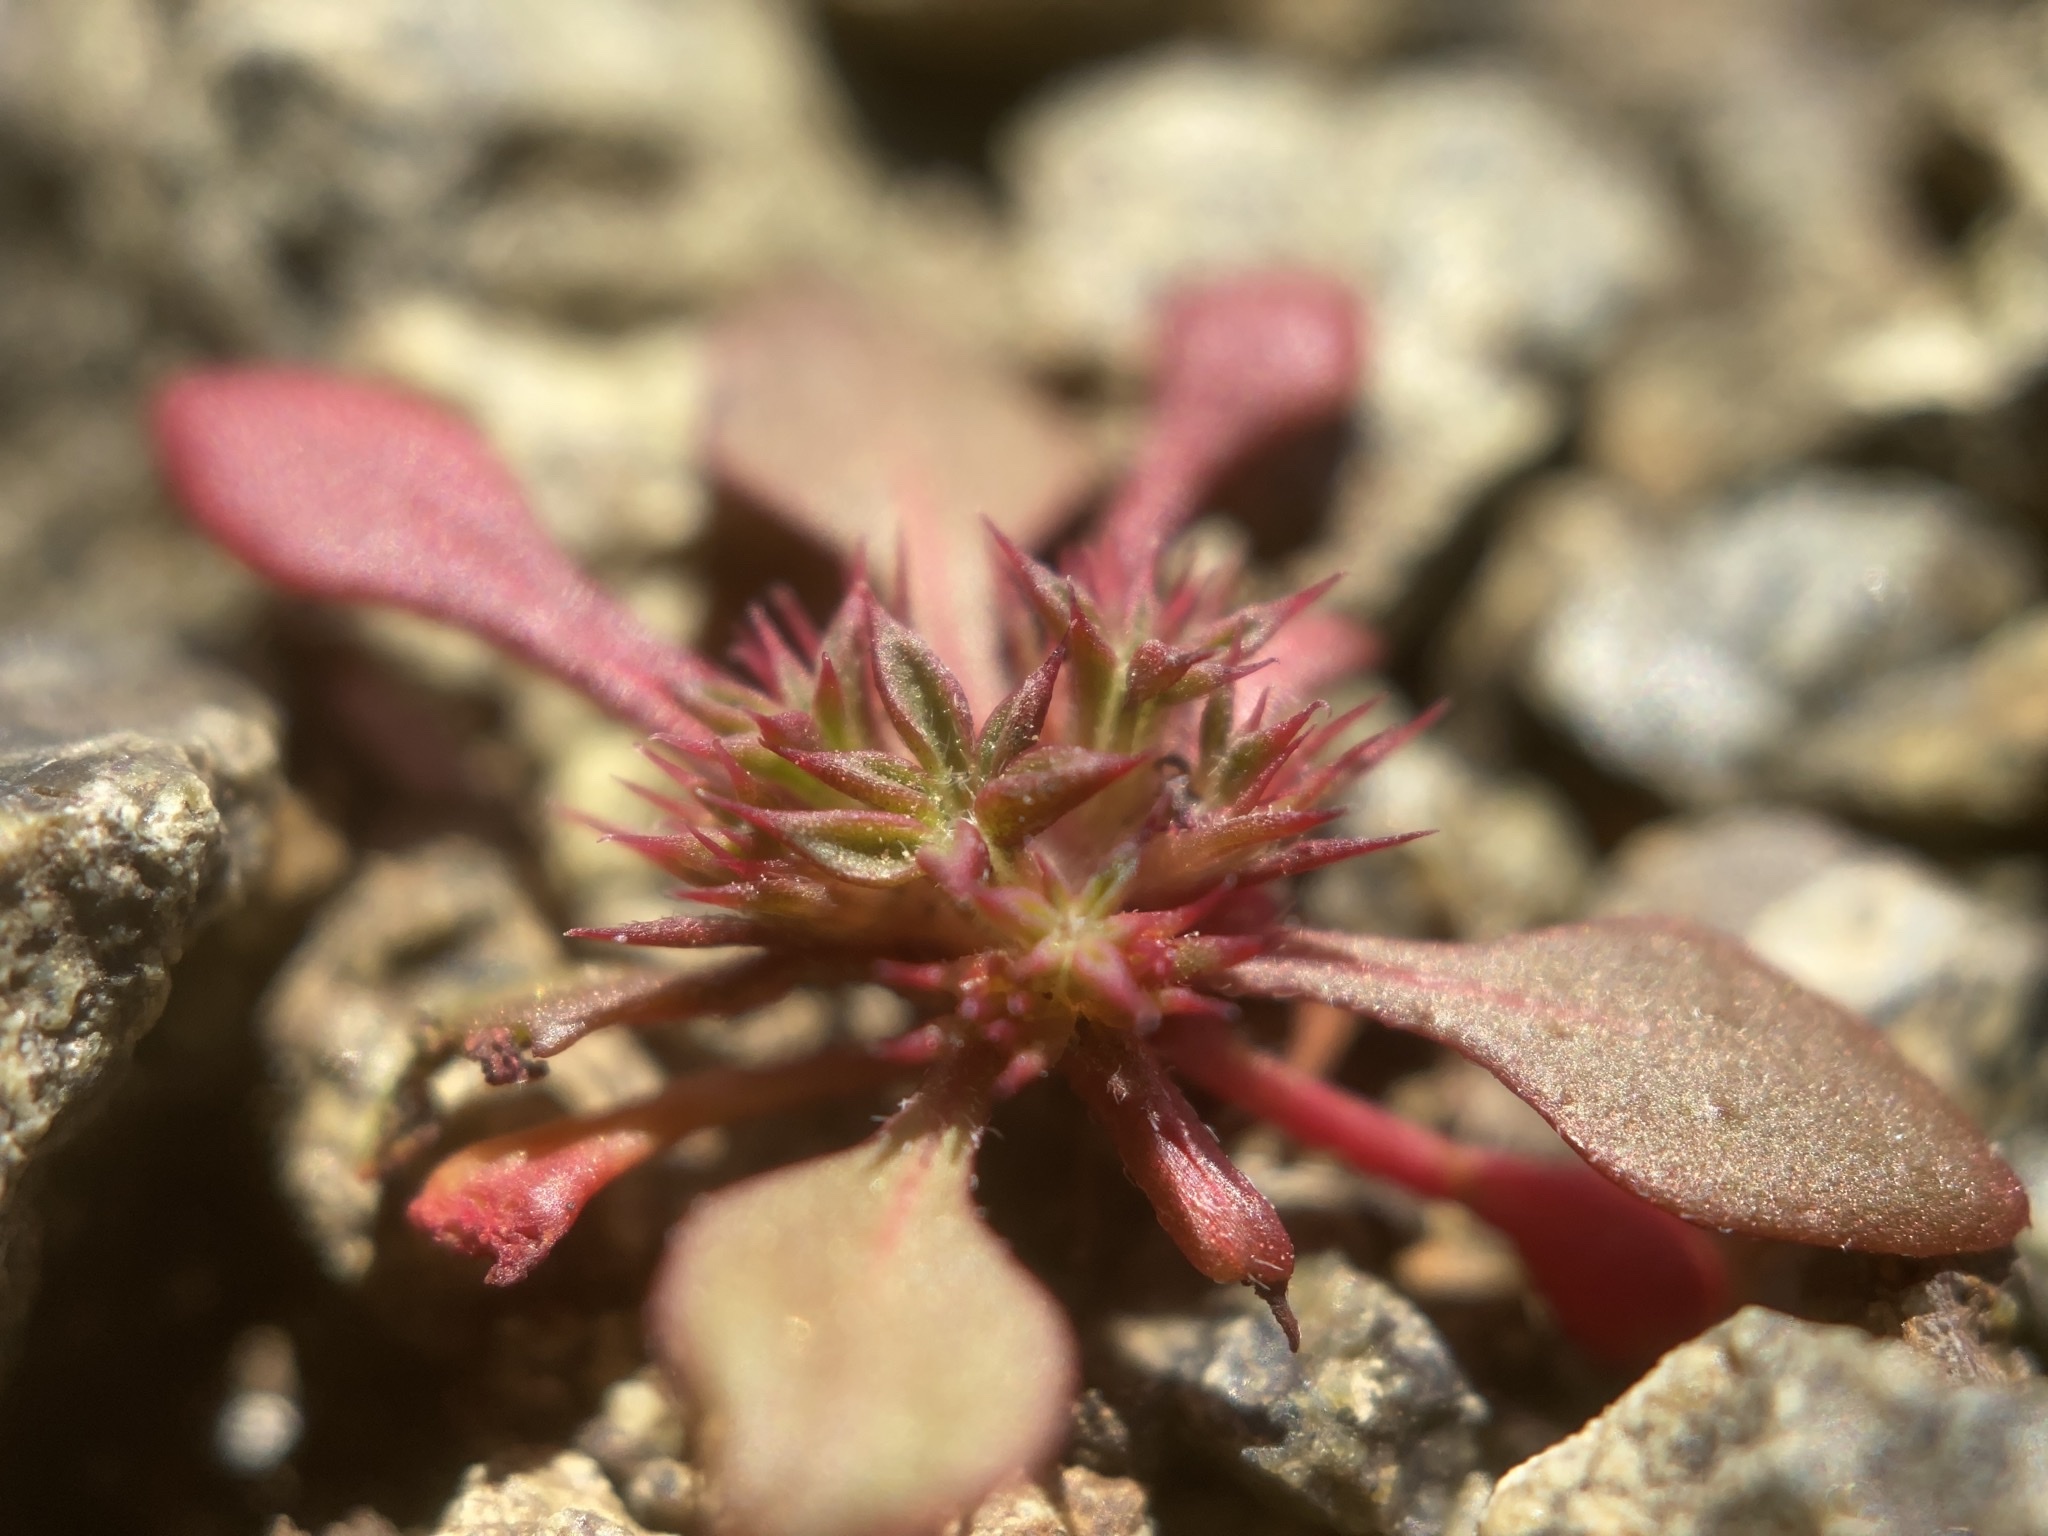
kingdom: Plantae
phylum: Tracheophyta
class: Magnoliopsida
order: Caryophyllales
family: Polygonaceae
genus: Chorizanthe
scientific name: Chorizanthe aphanantha
